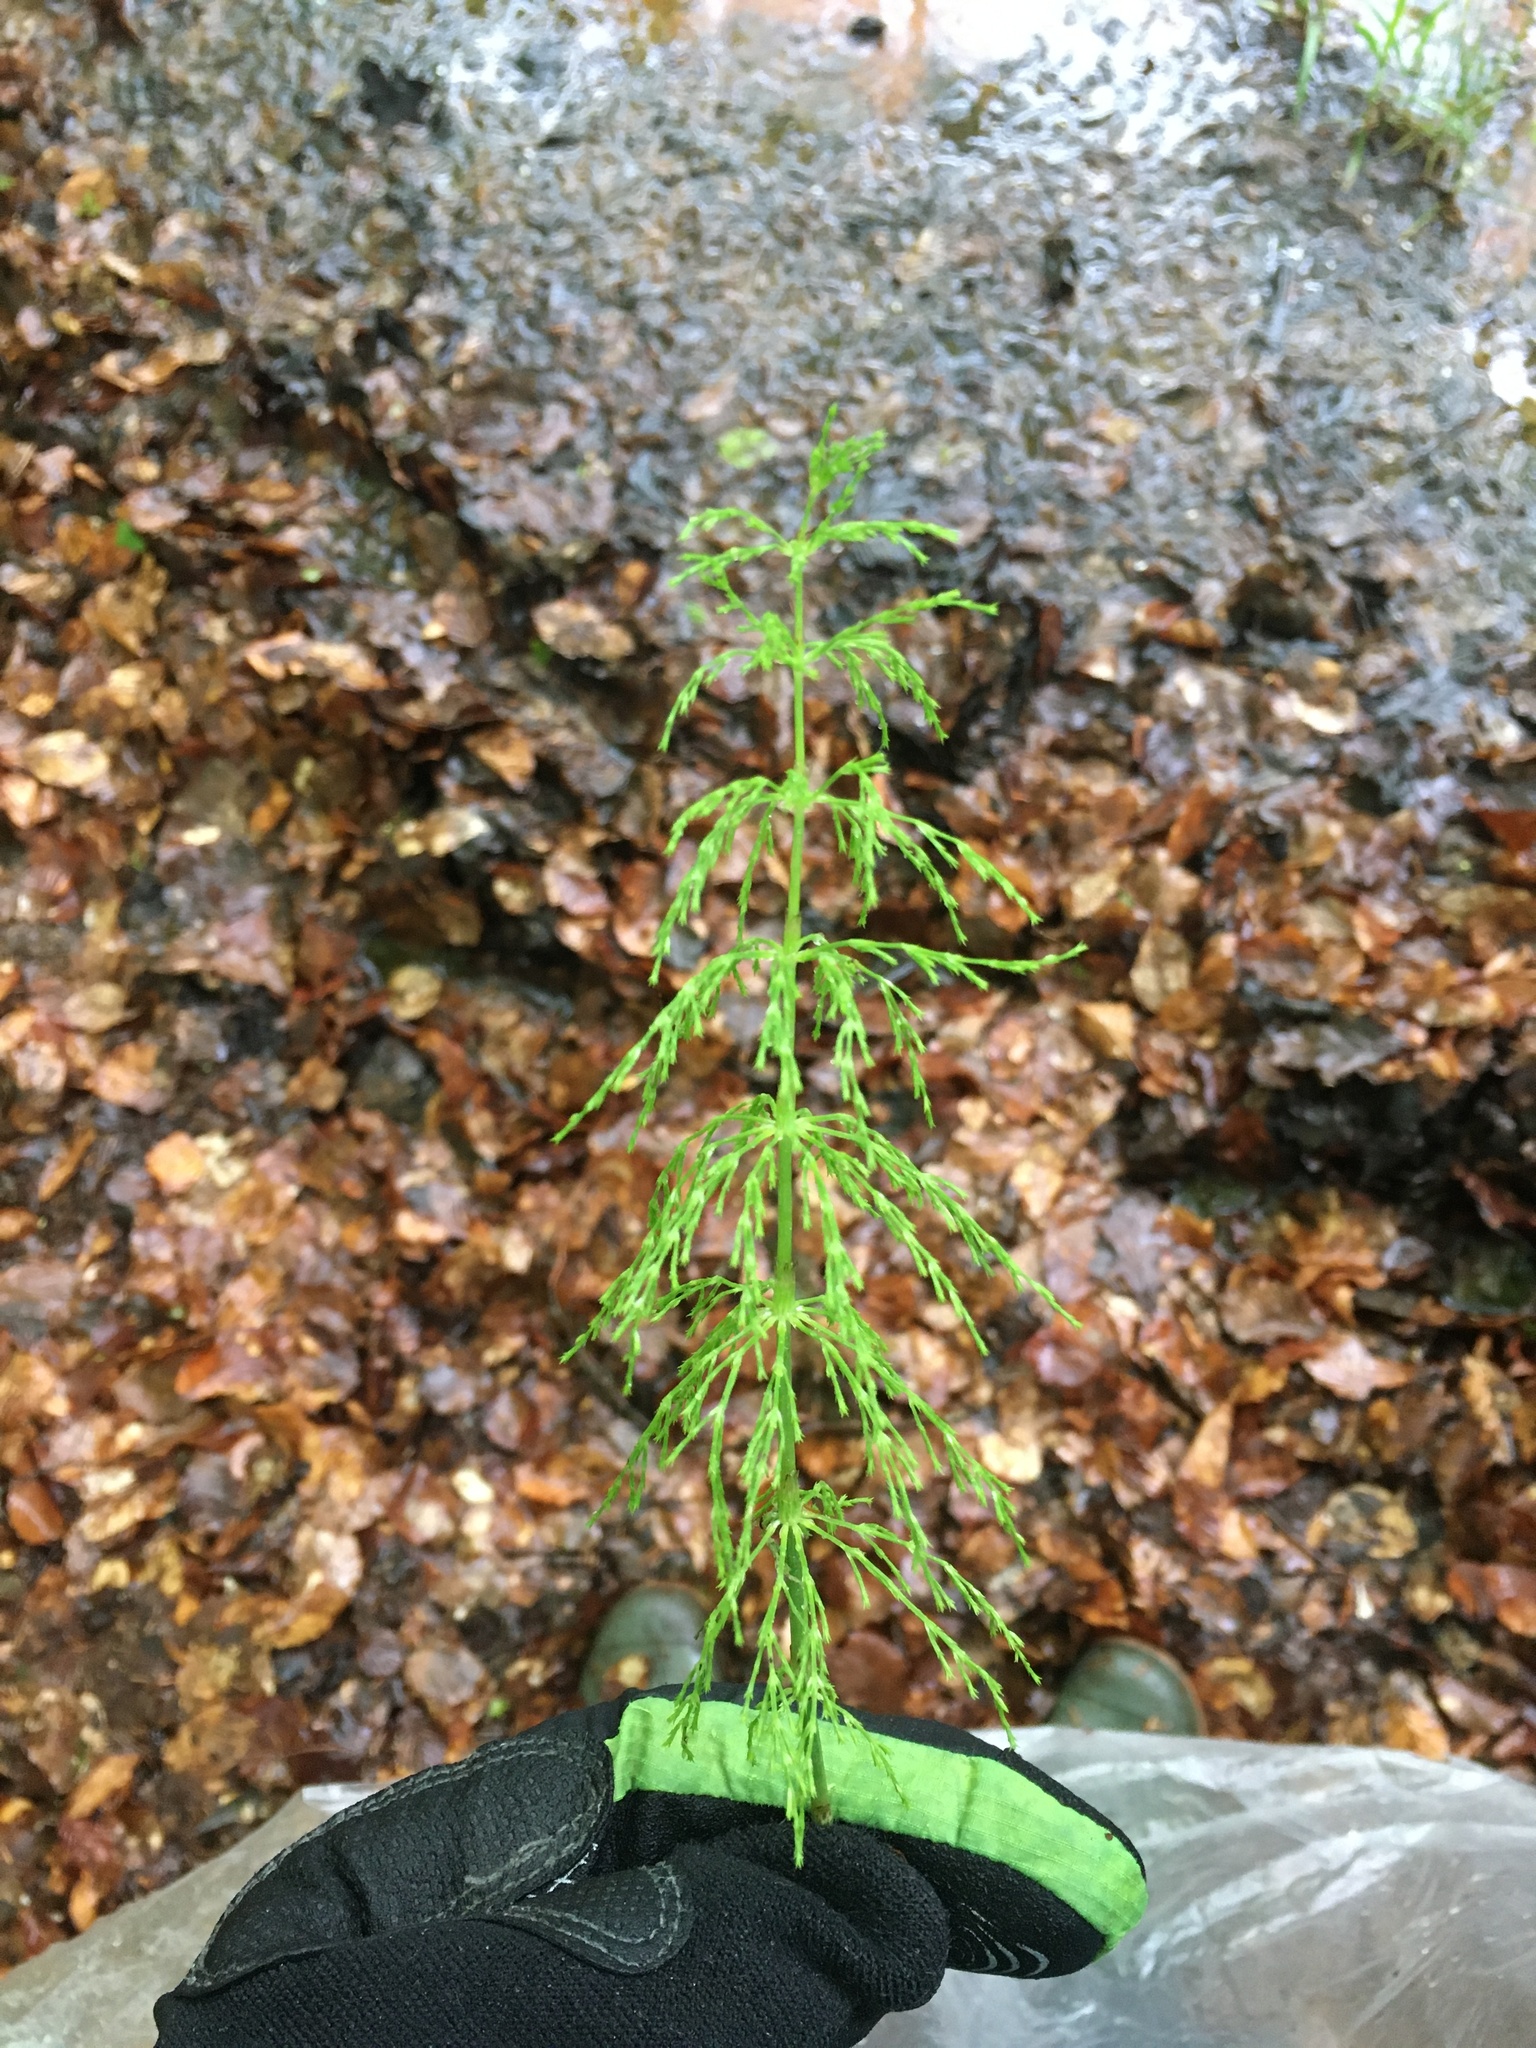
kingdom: Plantae
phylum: Tracheophyta
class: Polypodiopsida
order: Equisetales
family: Equisetaceae
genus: Equisetum
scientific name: Equisetum sylvaticum
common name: Wood horsetail
